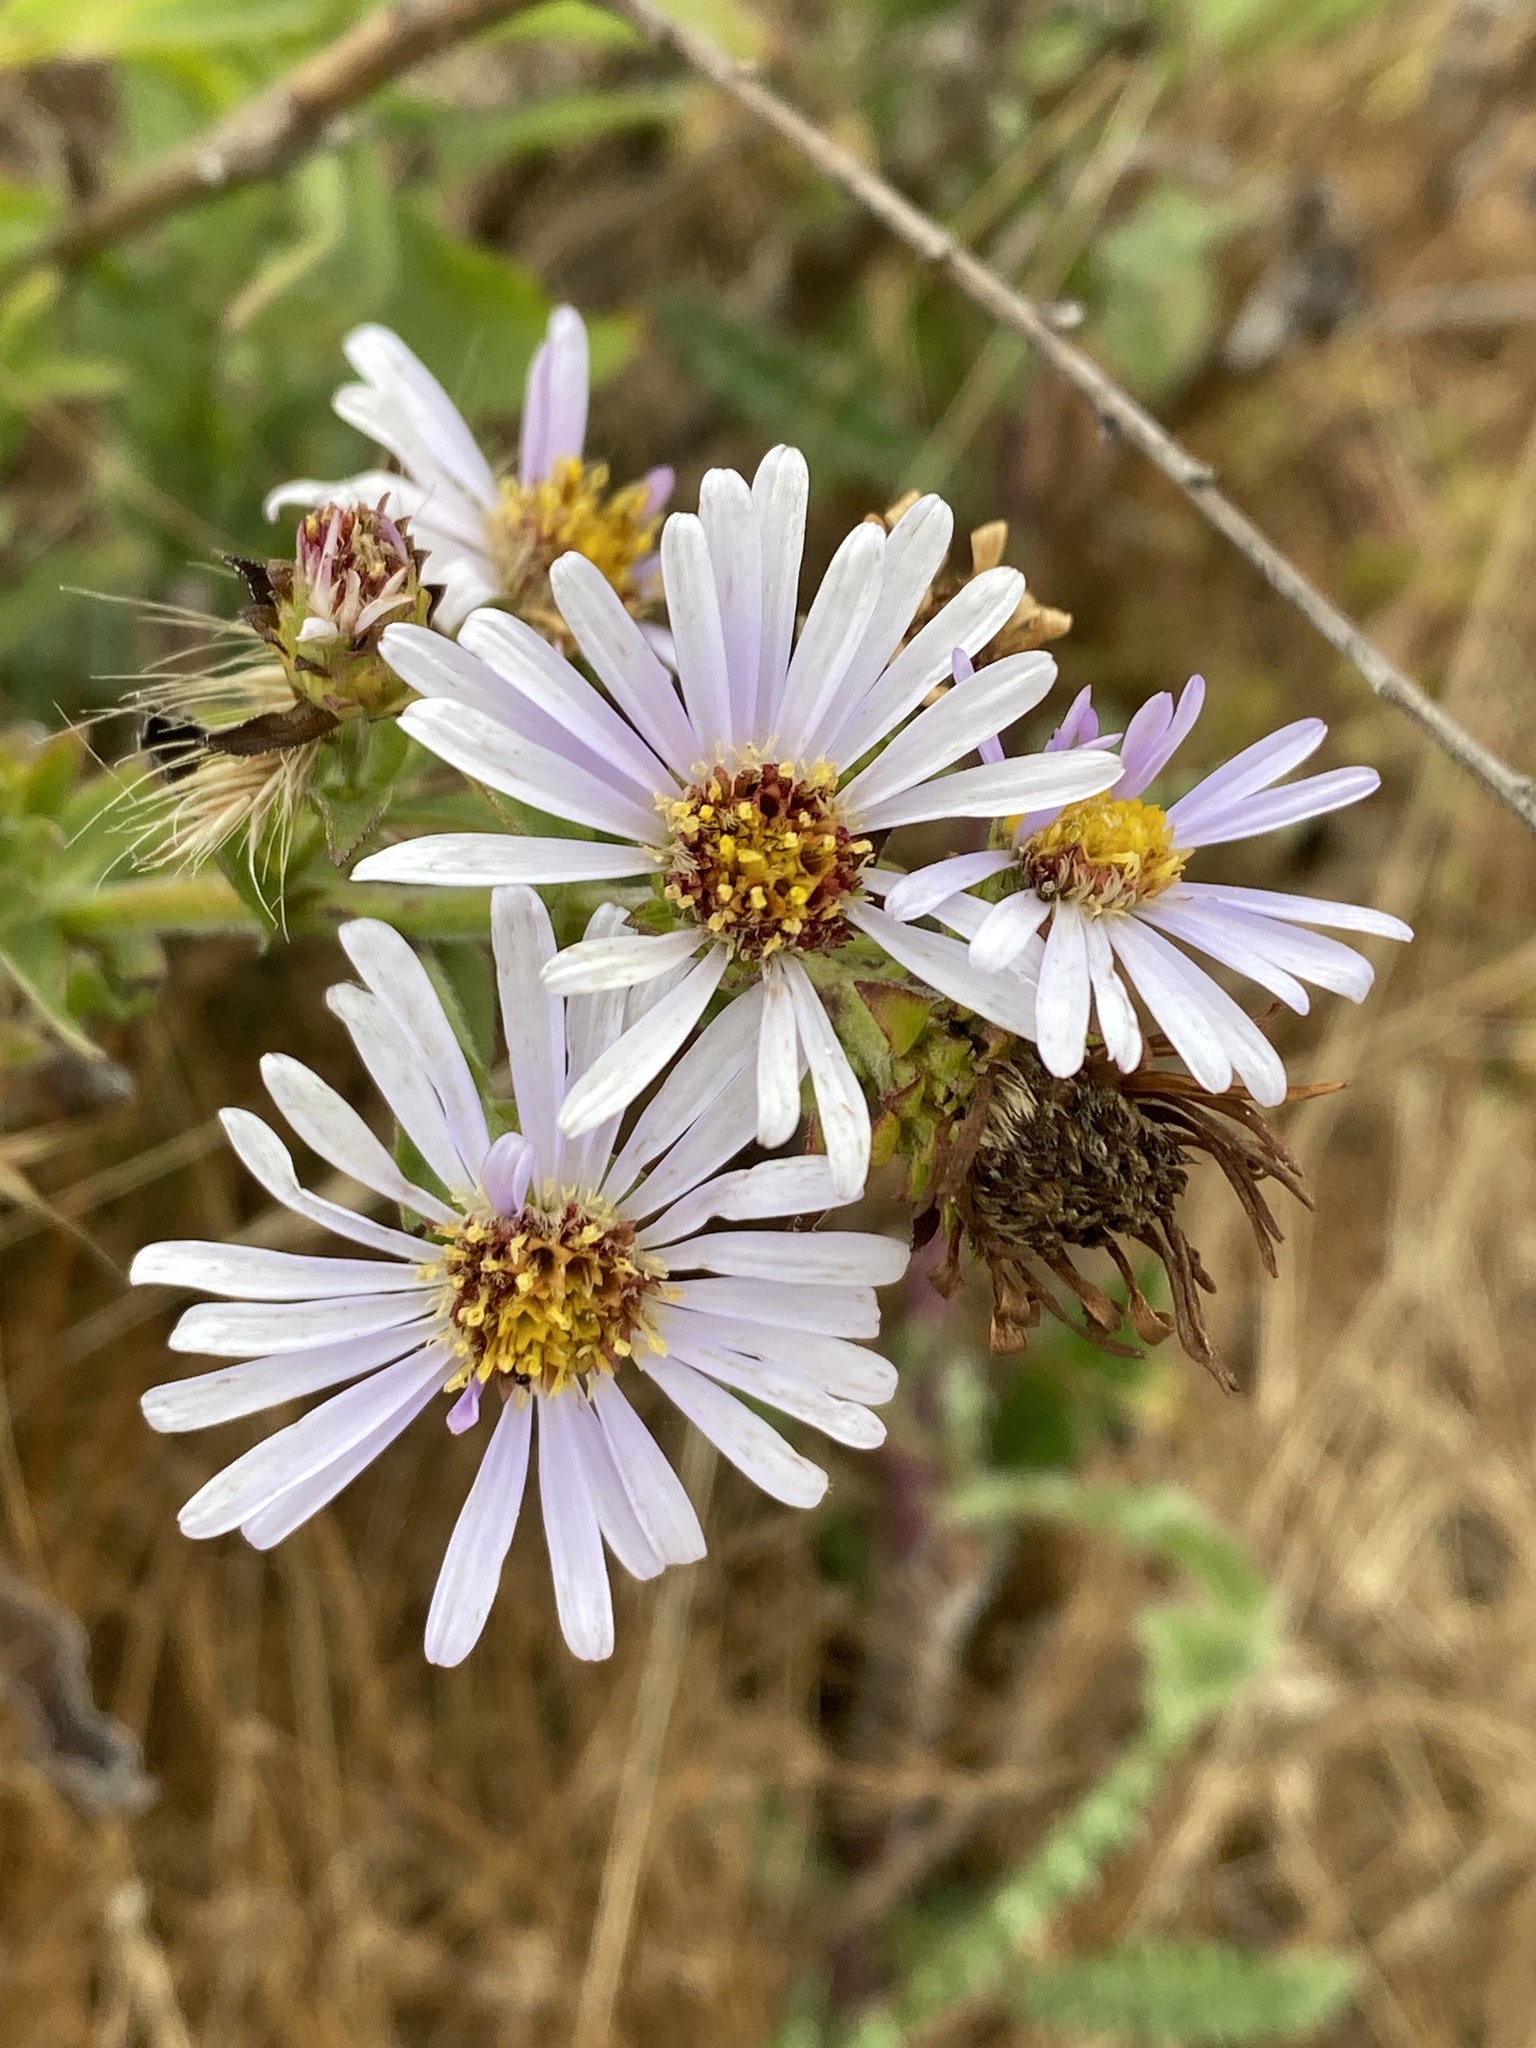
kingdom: Plantae
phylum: Tracheophyta
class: Magnoliopsida
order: Asterales
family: Asteraceae
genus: Symphyotrichum
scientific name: Symphyotrichum chilense
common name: Pacific aster
